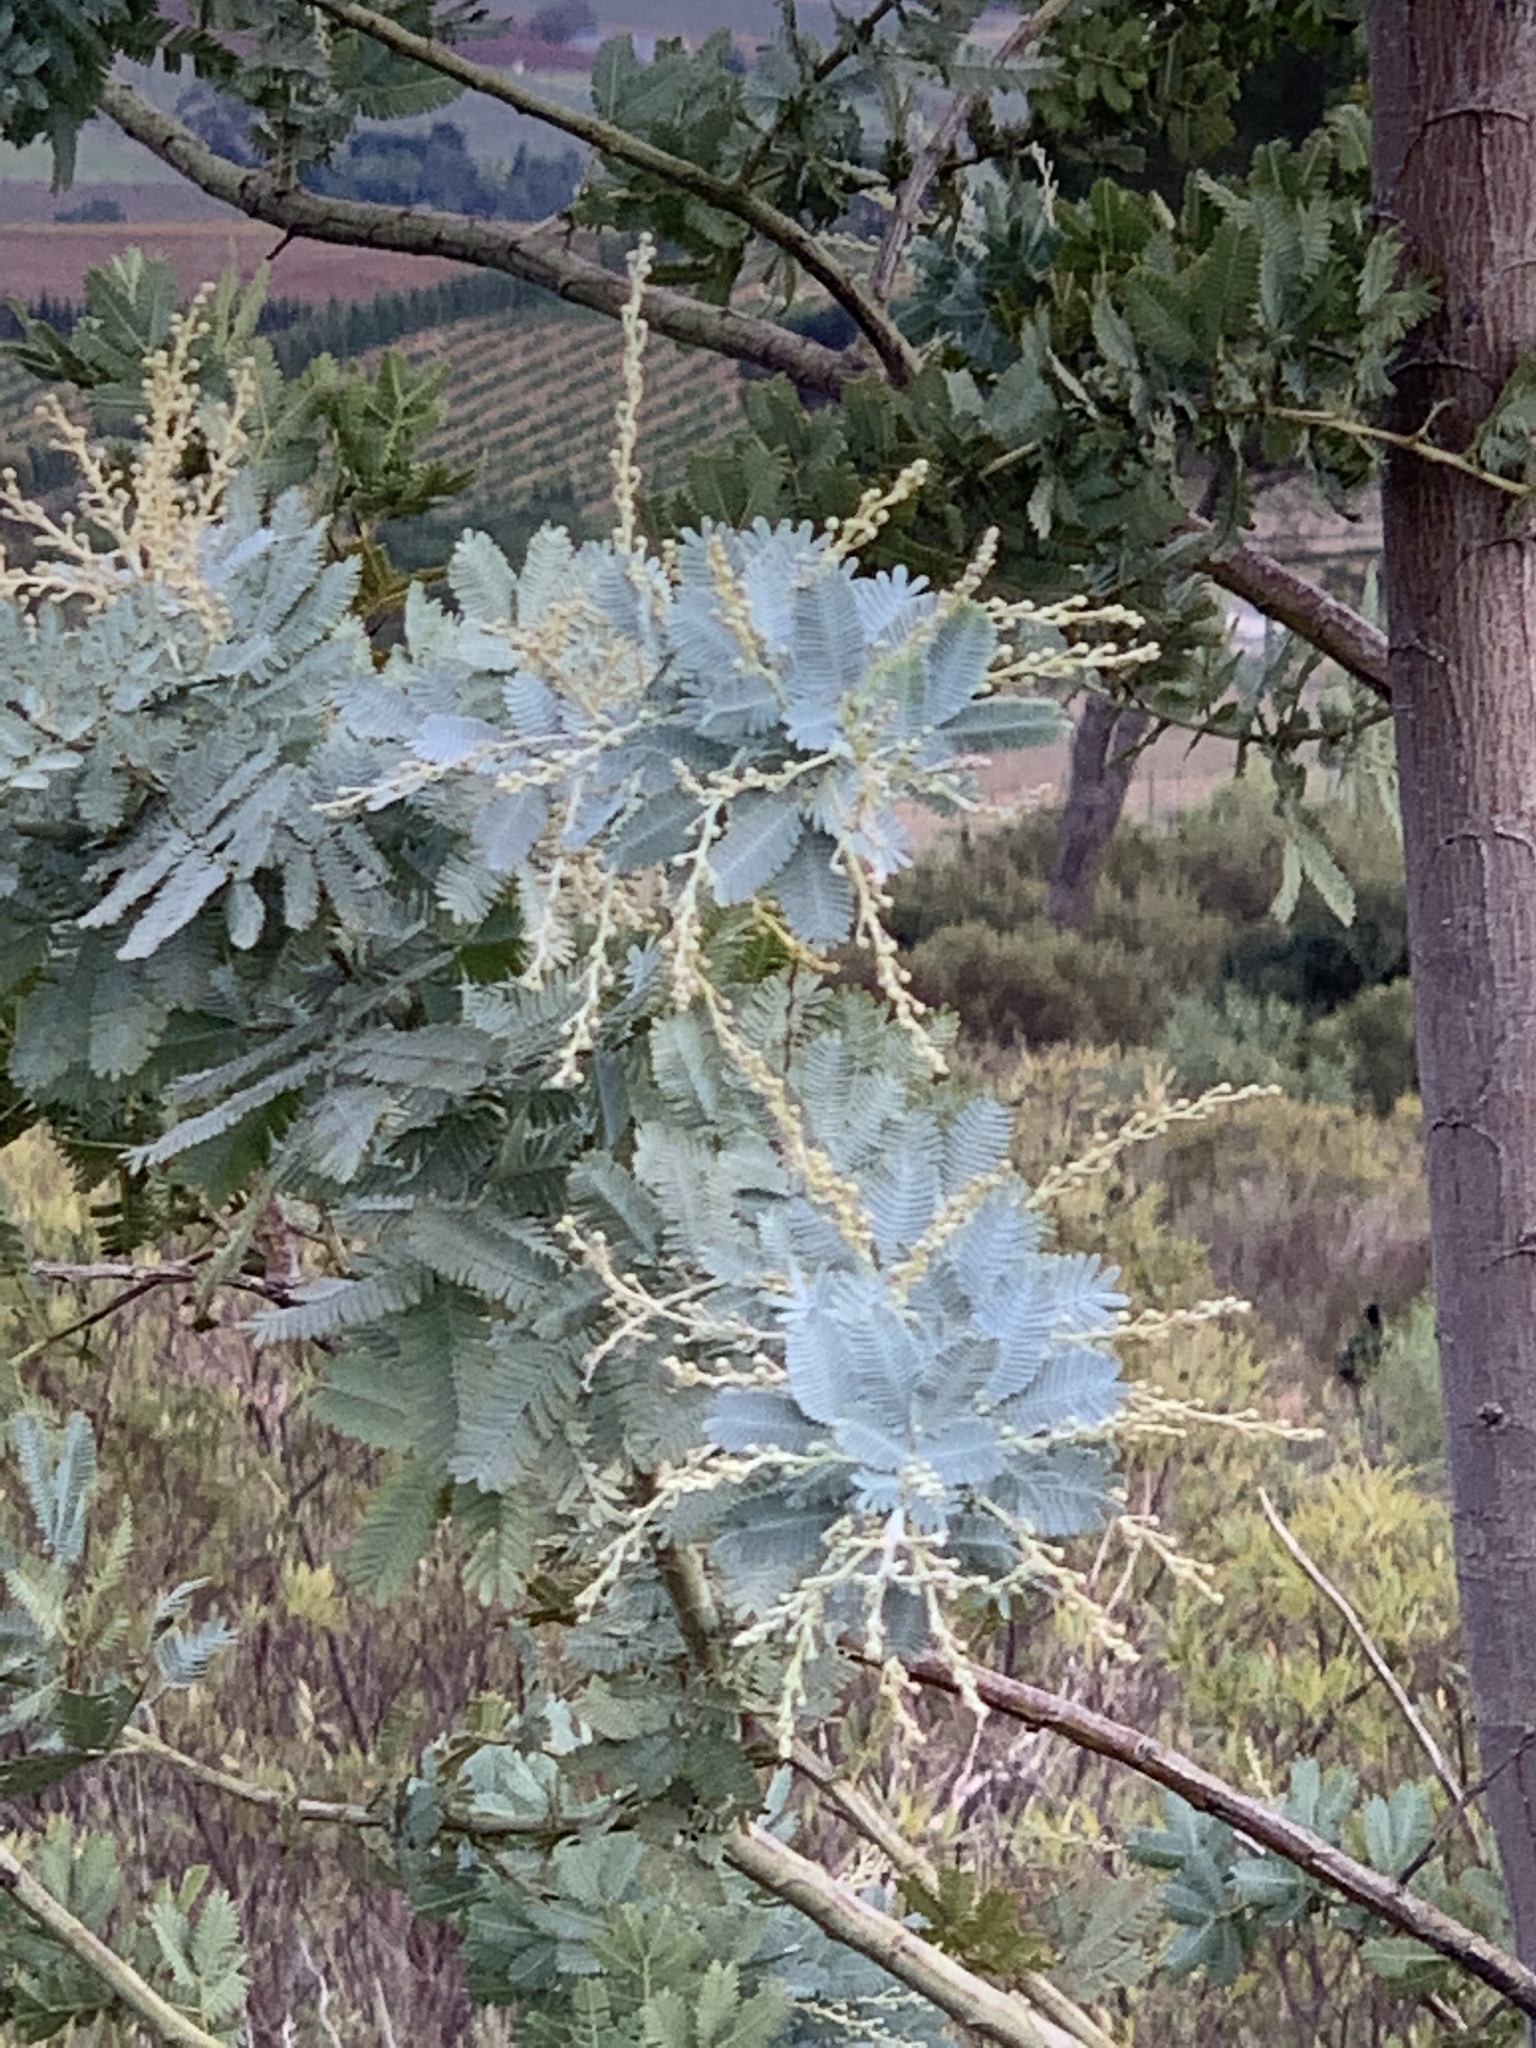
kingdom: Plantae
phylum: Tracheophyta
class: Magnoliopsida
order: Fabales
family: Fabaceae
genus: Acacia
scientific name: Acacia baileyana
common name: Cootamundra wattle
